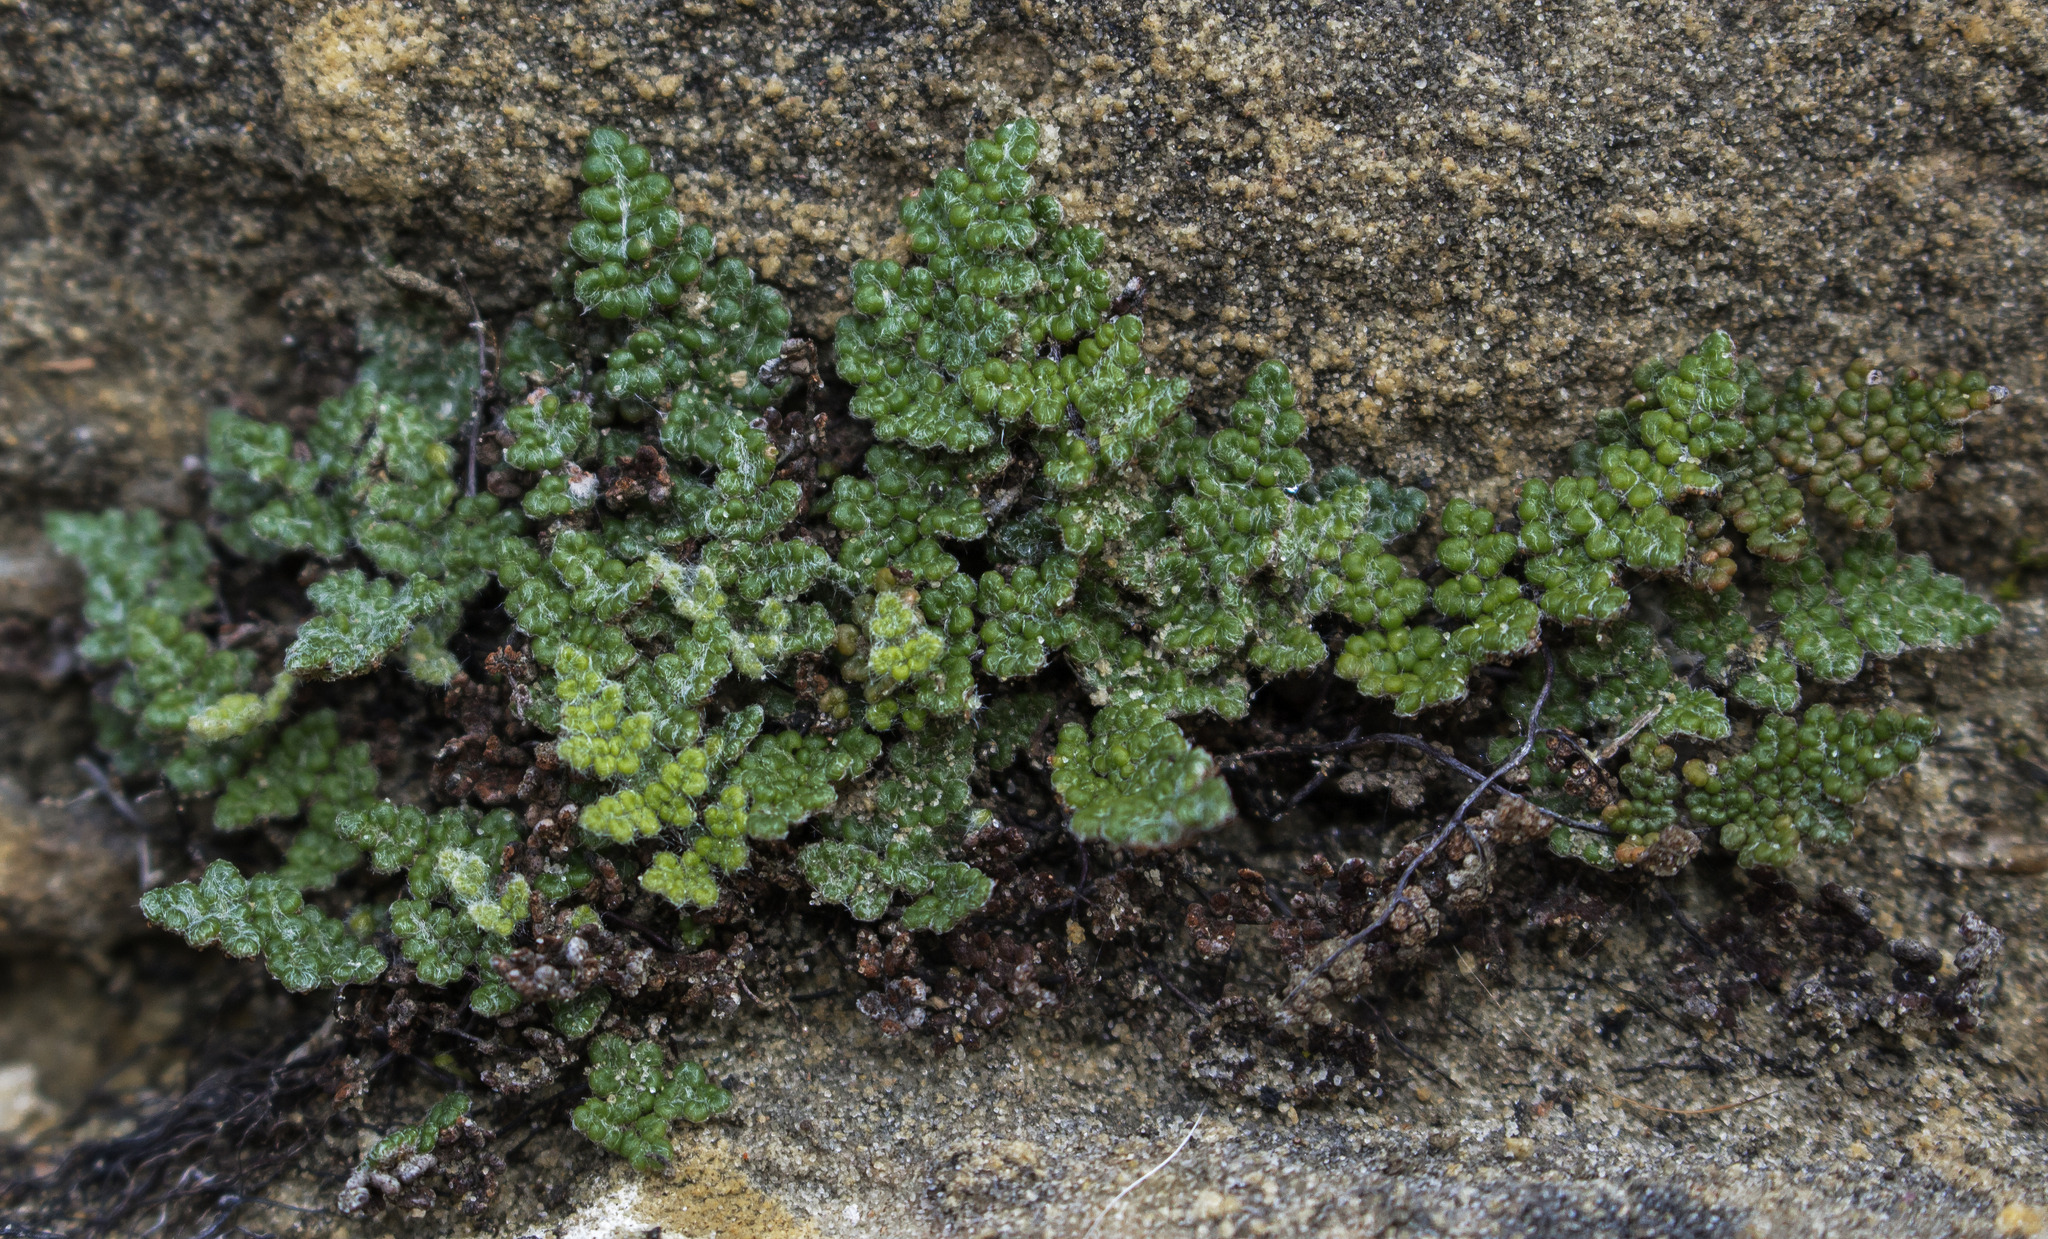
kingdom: Plantae
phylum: Tracheophyta
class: Polypodiopsida
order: Polypodiales
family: Pteridaceae
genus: Myriopteris
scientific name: Myriopteris gracilis
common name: Fee's lip fern
